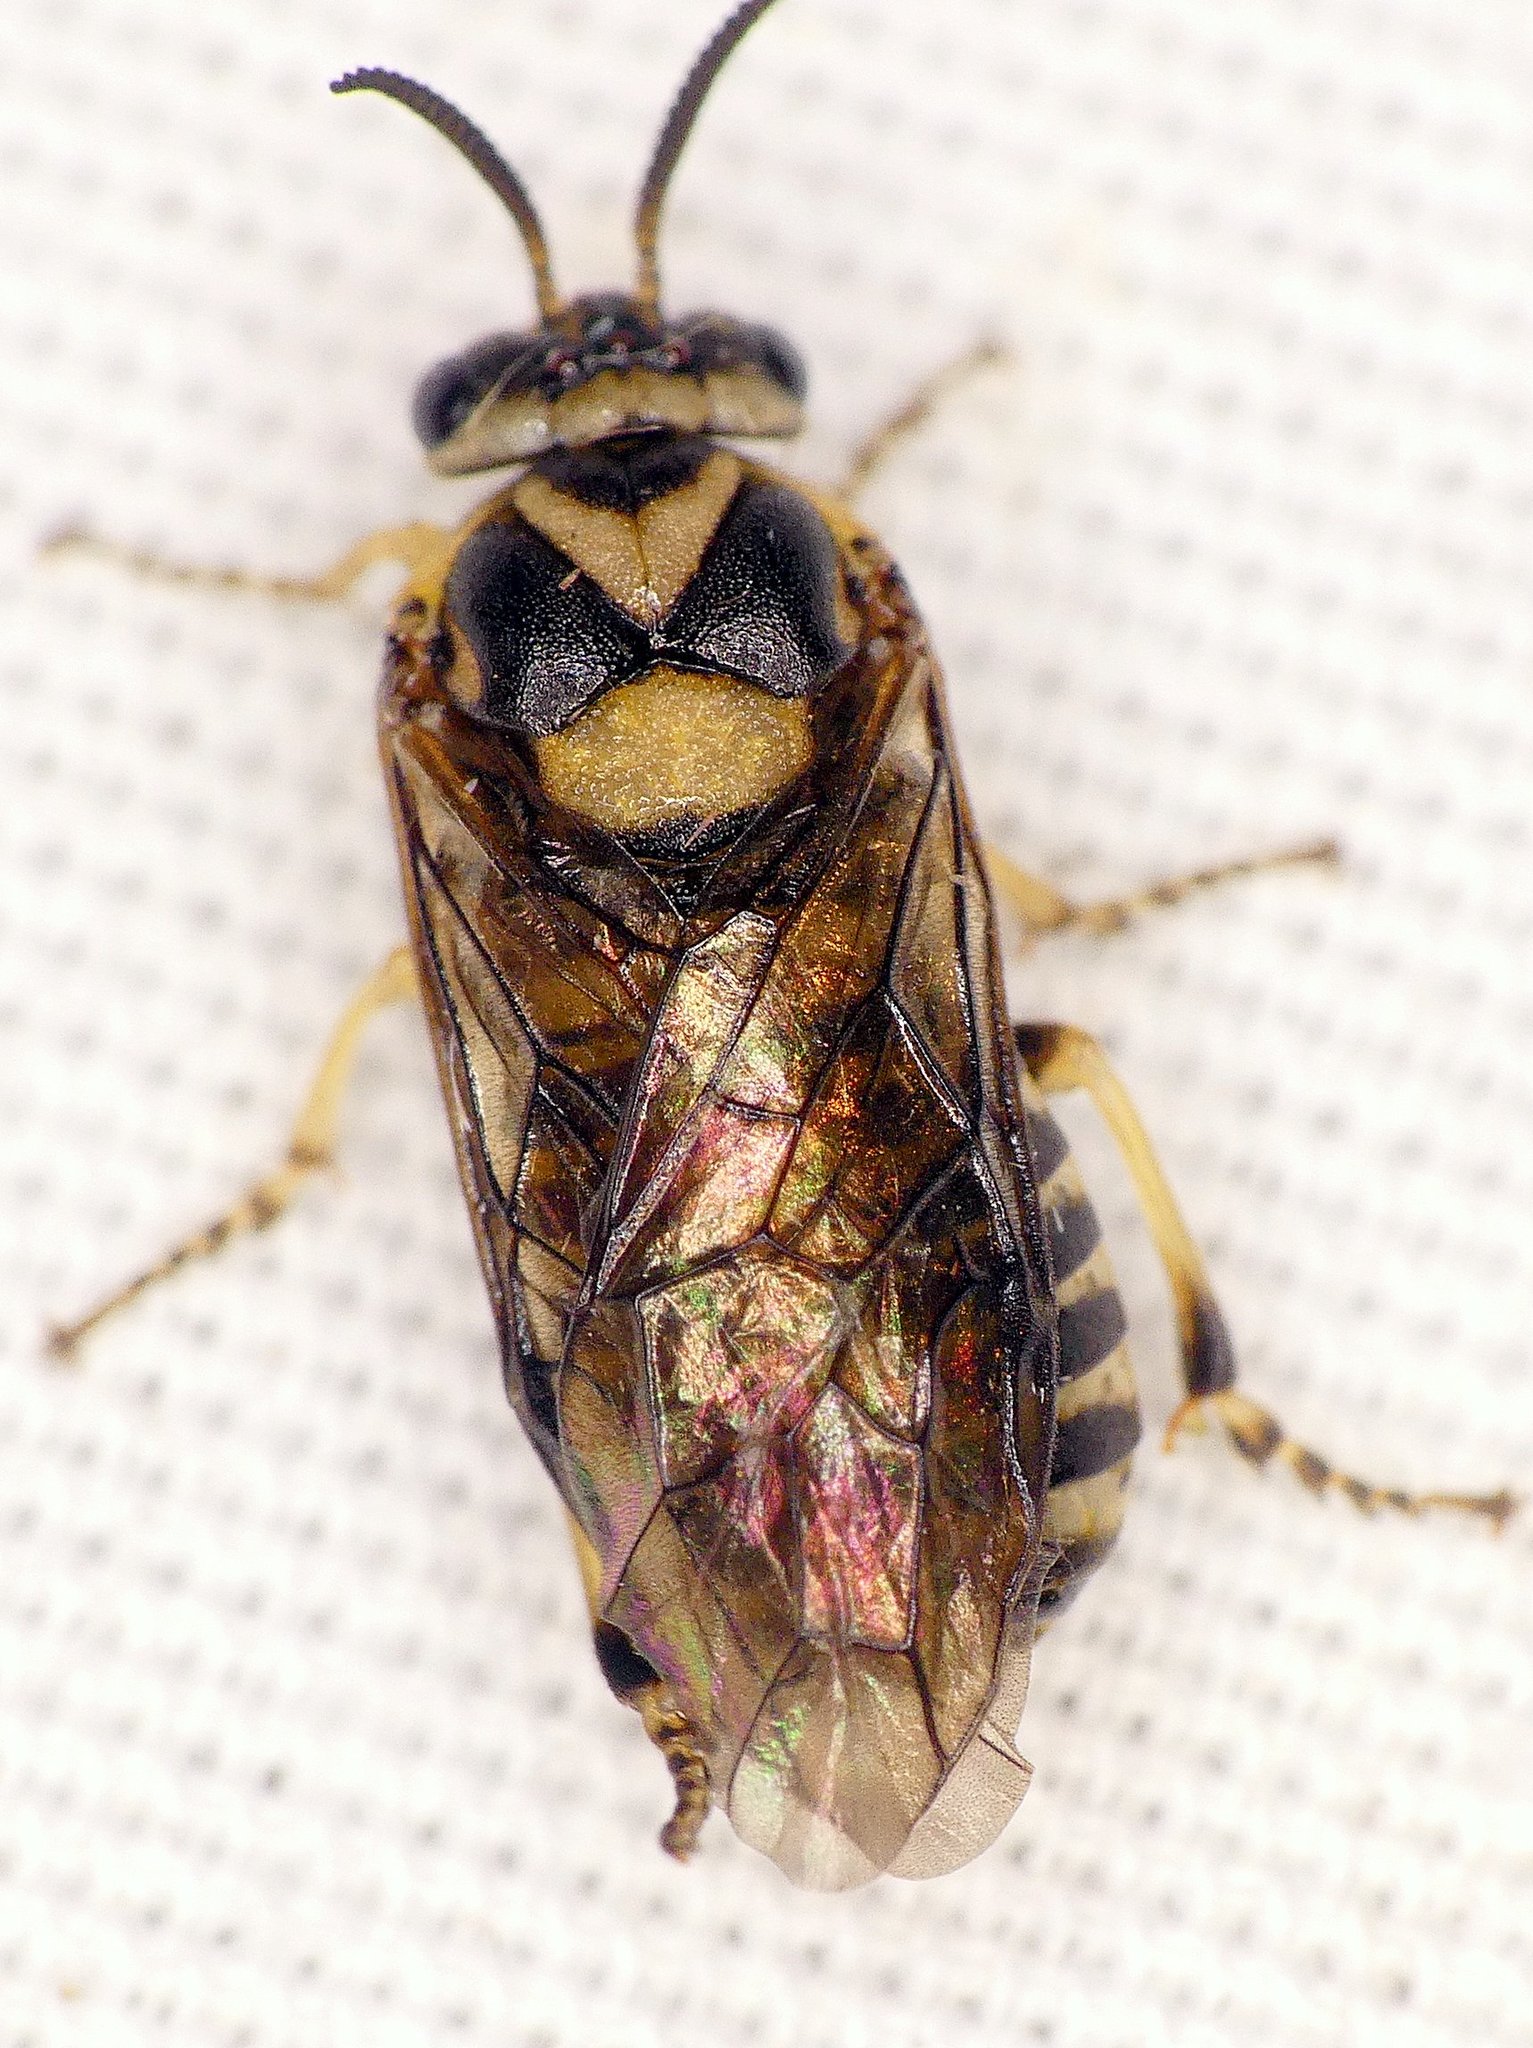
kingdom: Animalia
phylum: Arthropoda
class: Insecta
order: Hymenoptera
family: Diprionidae
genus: Gilpinia
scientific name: Gilpinia hercyniae
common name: European spruce sawfly
